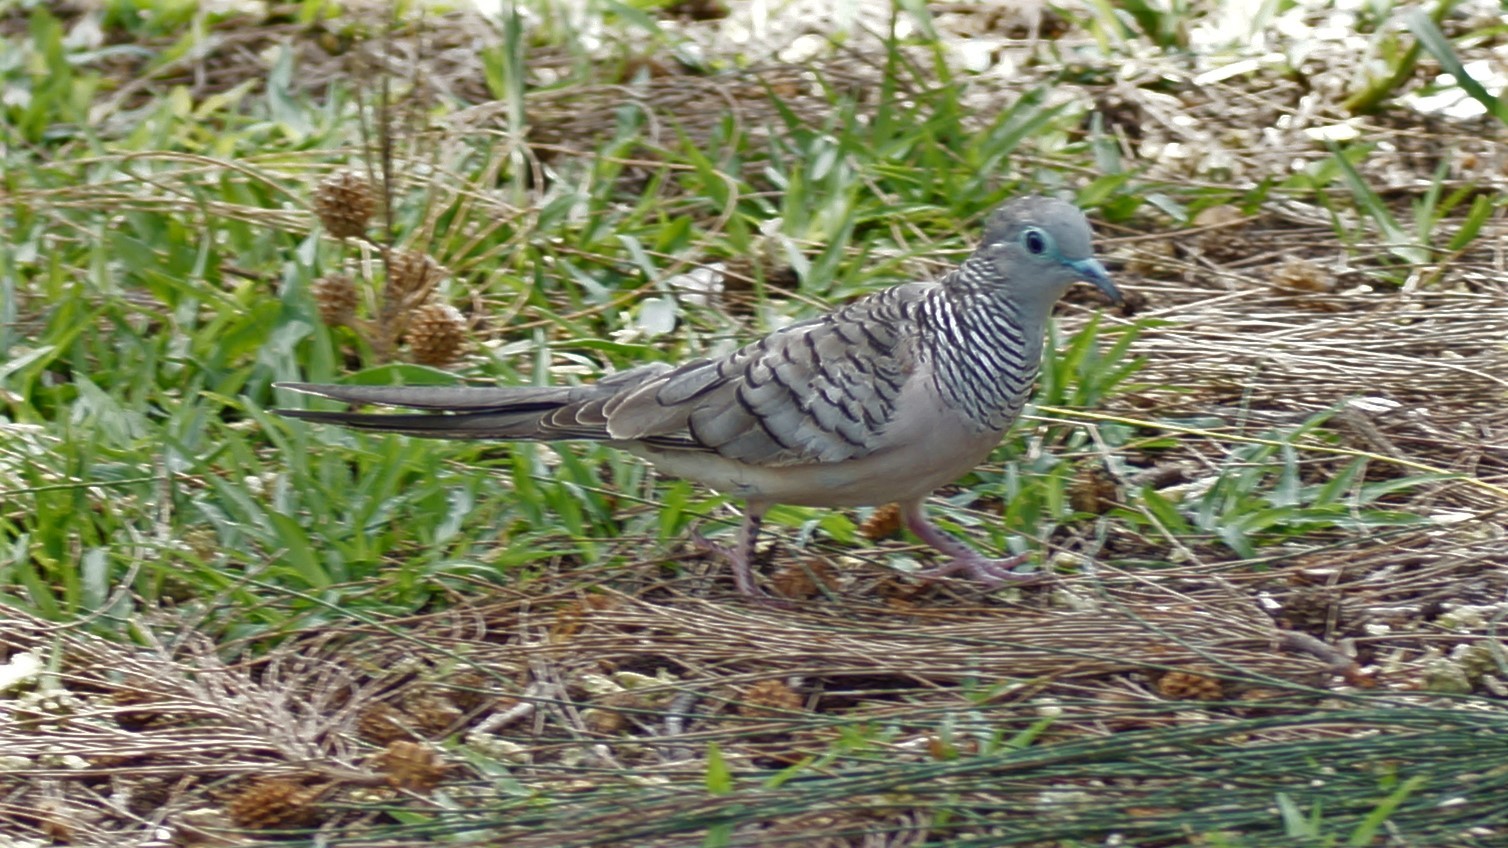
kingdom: Animalia
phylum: Chordata
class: Aves
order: Columbiformes
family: Columbidae
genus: Geopelia
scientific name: Geopelia placida
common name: Peaceful dove
